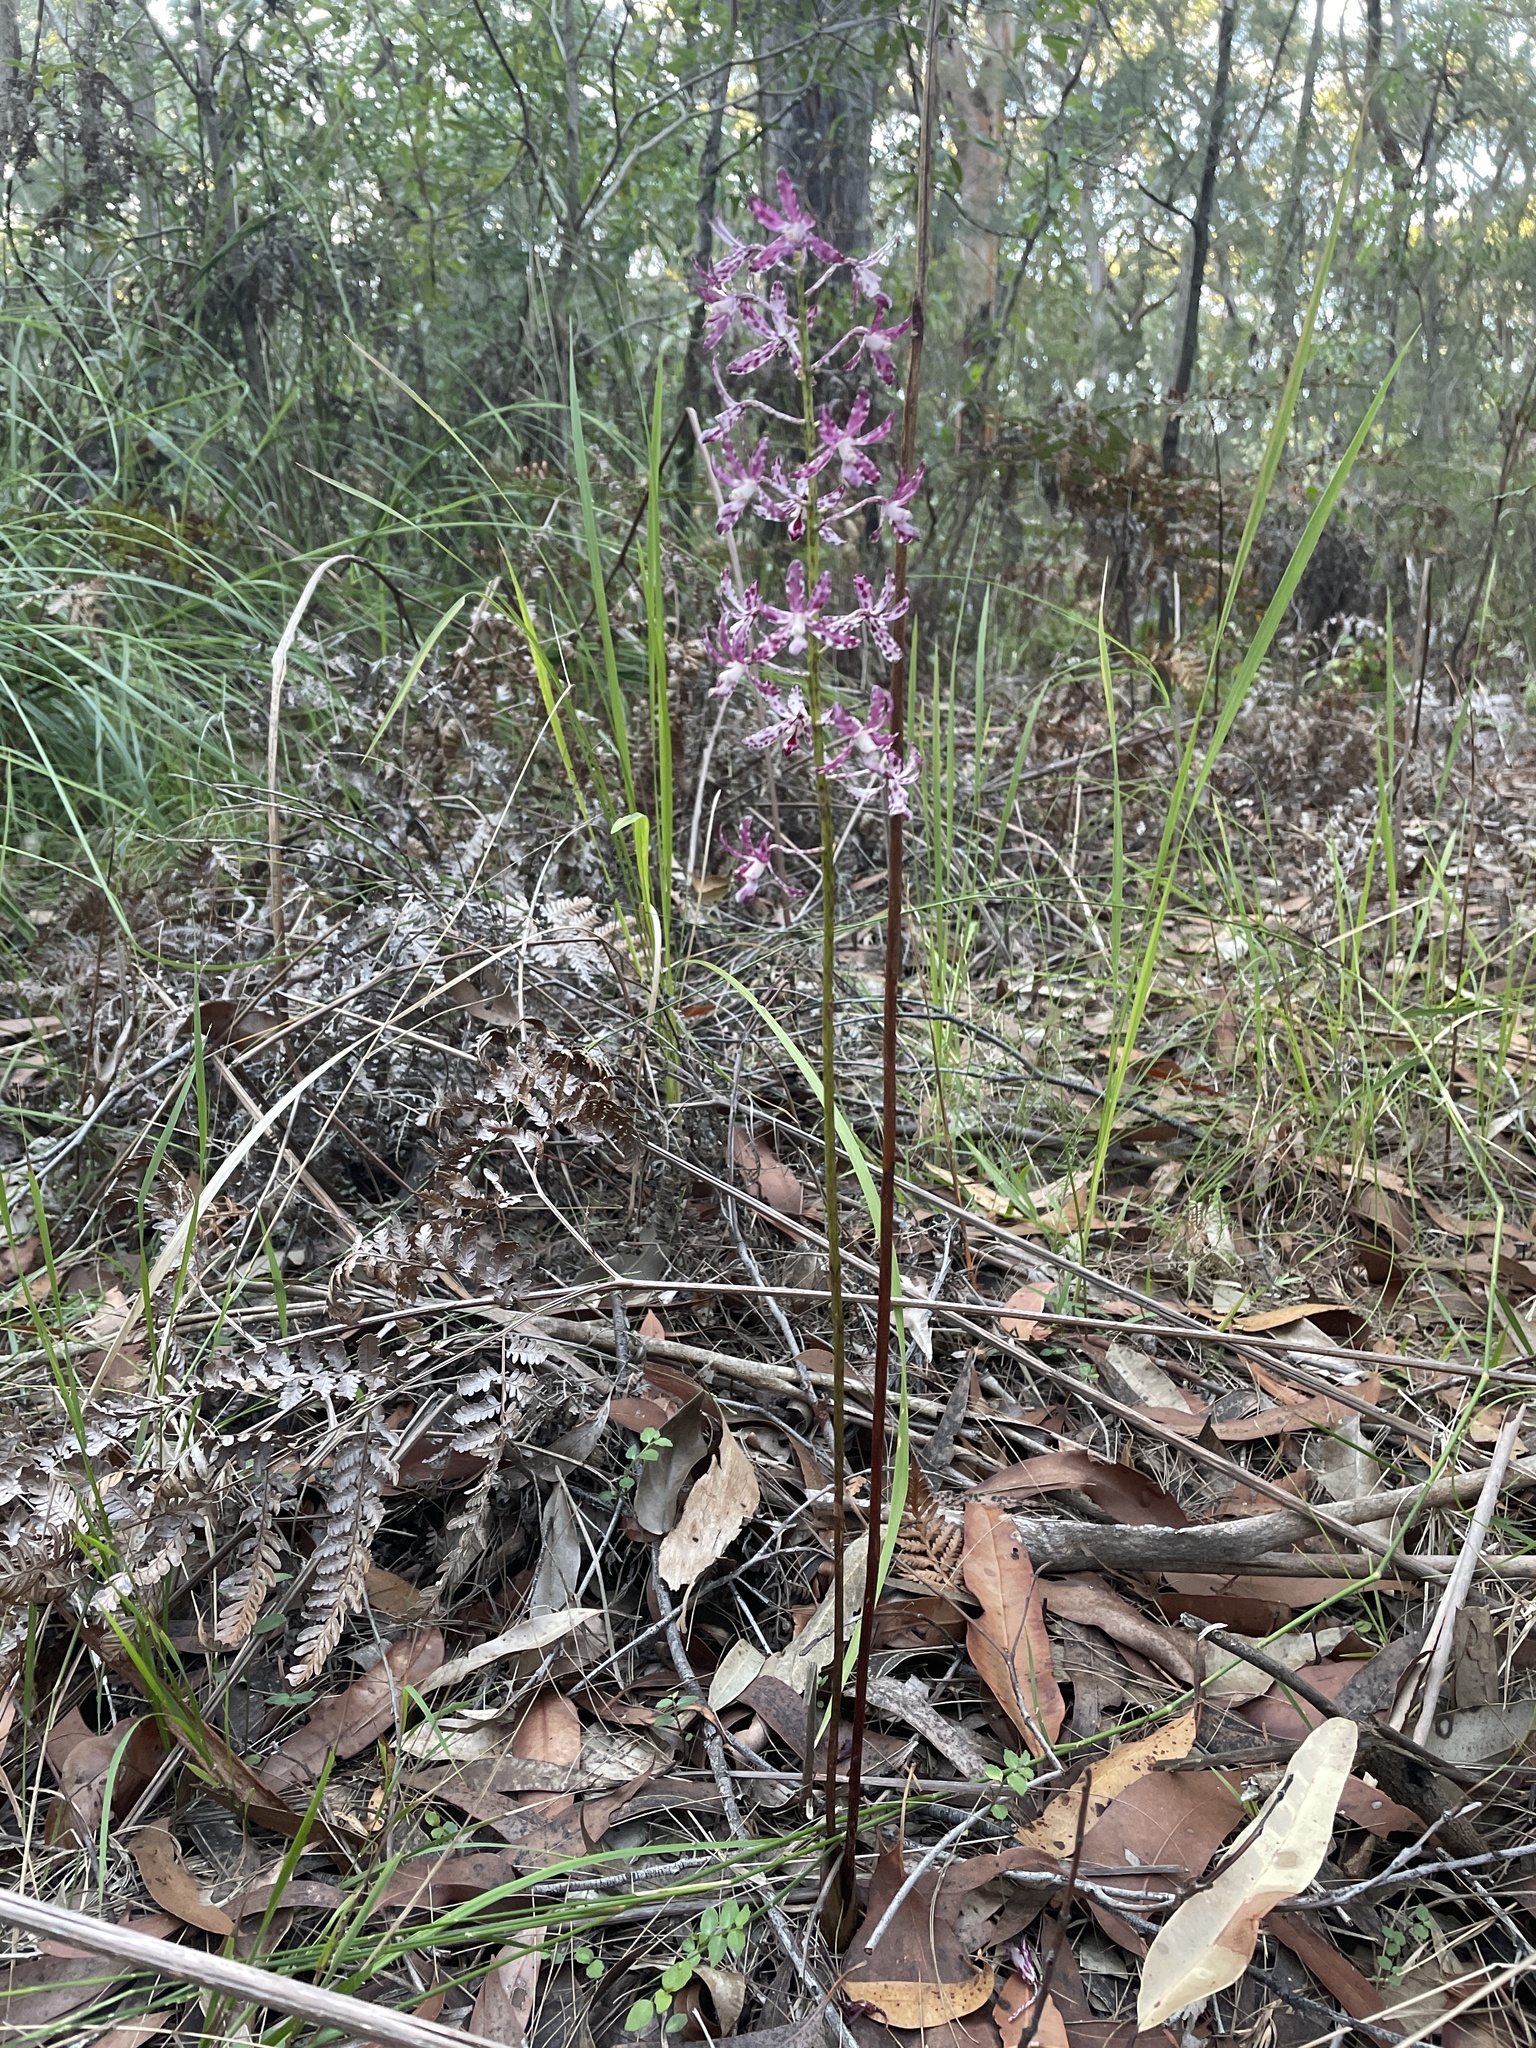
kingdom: Plantae
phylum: Tracheophyta
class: Liliopsida
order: Asparagales
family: Orchidaceae
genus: Dipodium
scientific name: Dipodium variegatum
